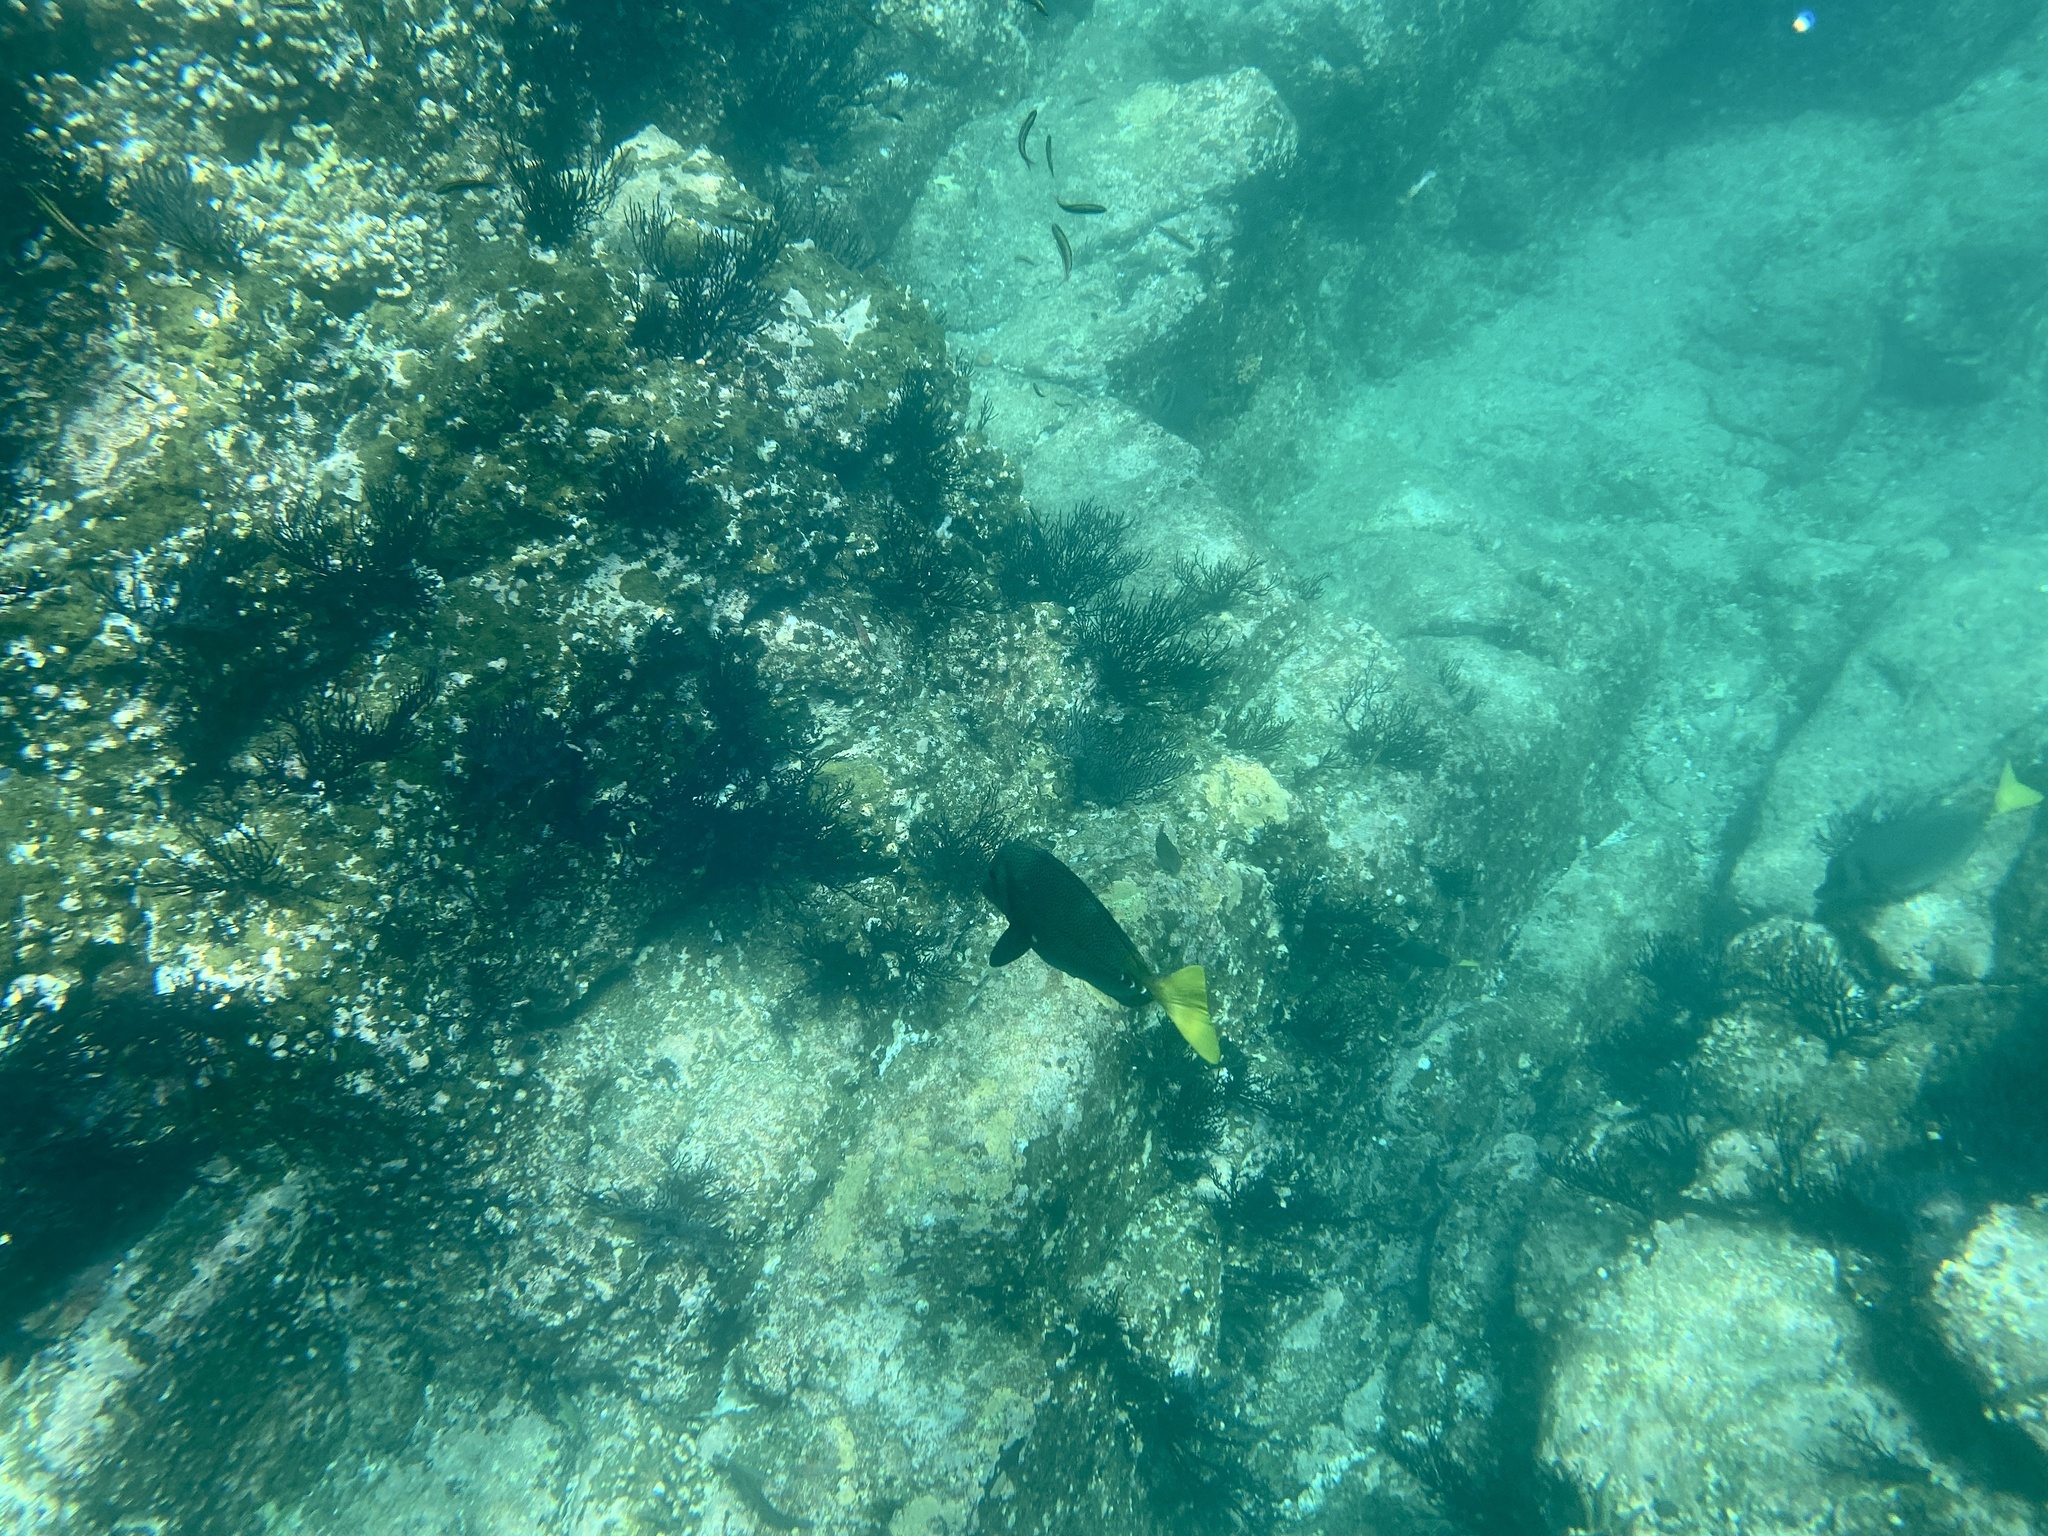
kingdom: Animalia
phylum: Chordata
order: Perciformes
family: Acanthuridae
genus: Prionurus
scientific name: Prionurus laticlavius
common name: Razor surgeonfish
